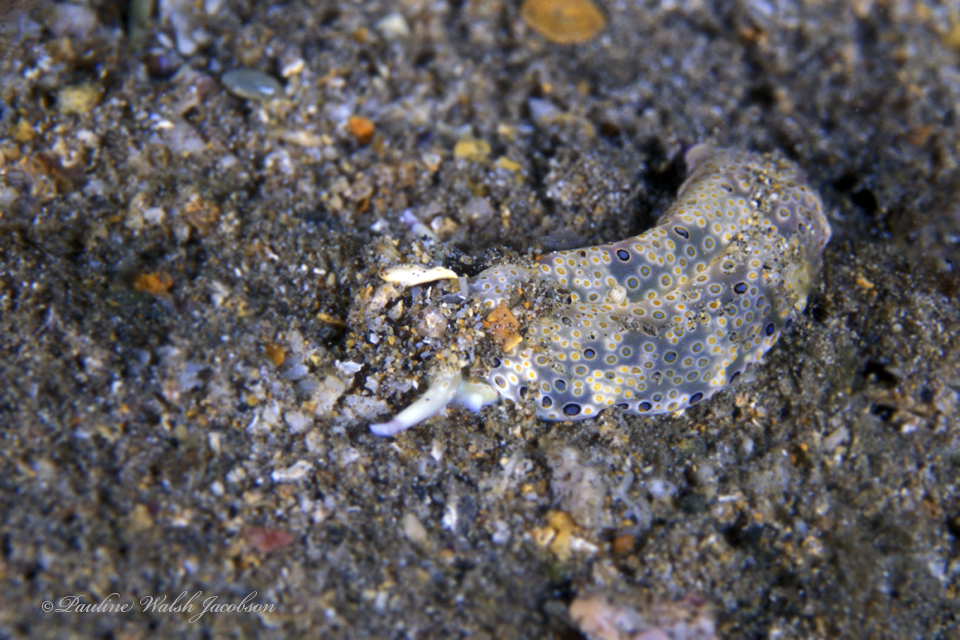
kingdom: Animalia
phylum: Mollusca
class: Gastropoda
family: Plakobranchidae
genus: Plakobranchus
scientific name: Plakobranchus ocellatus
